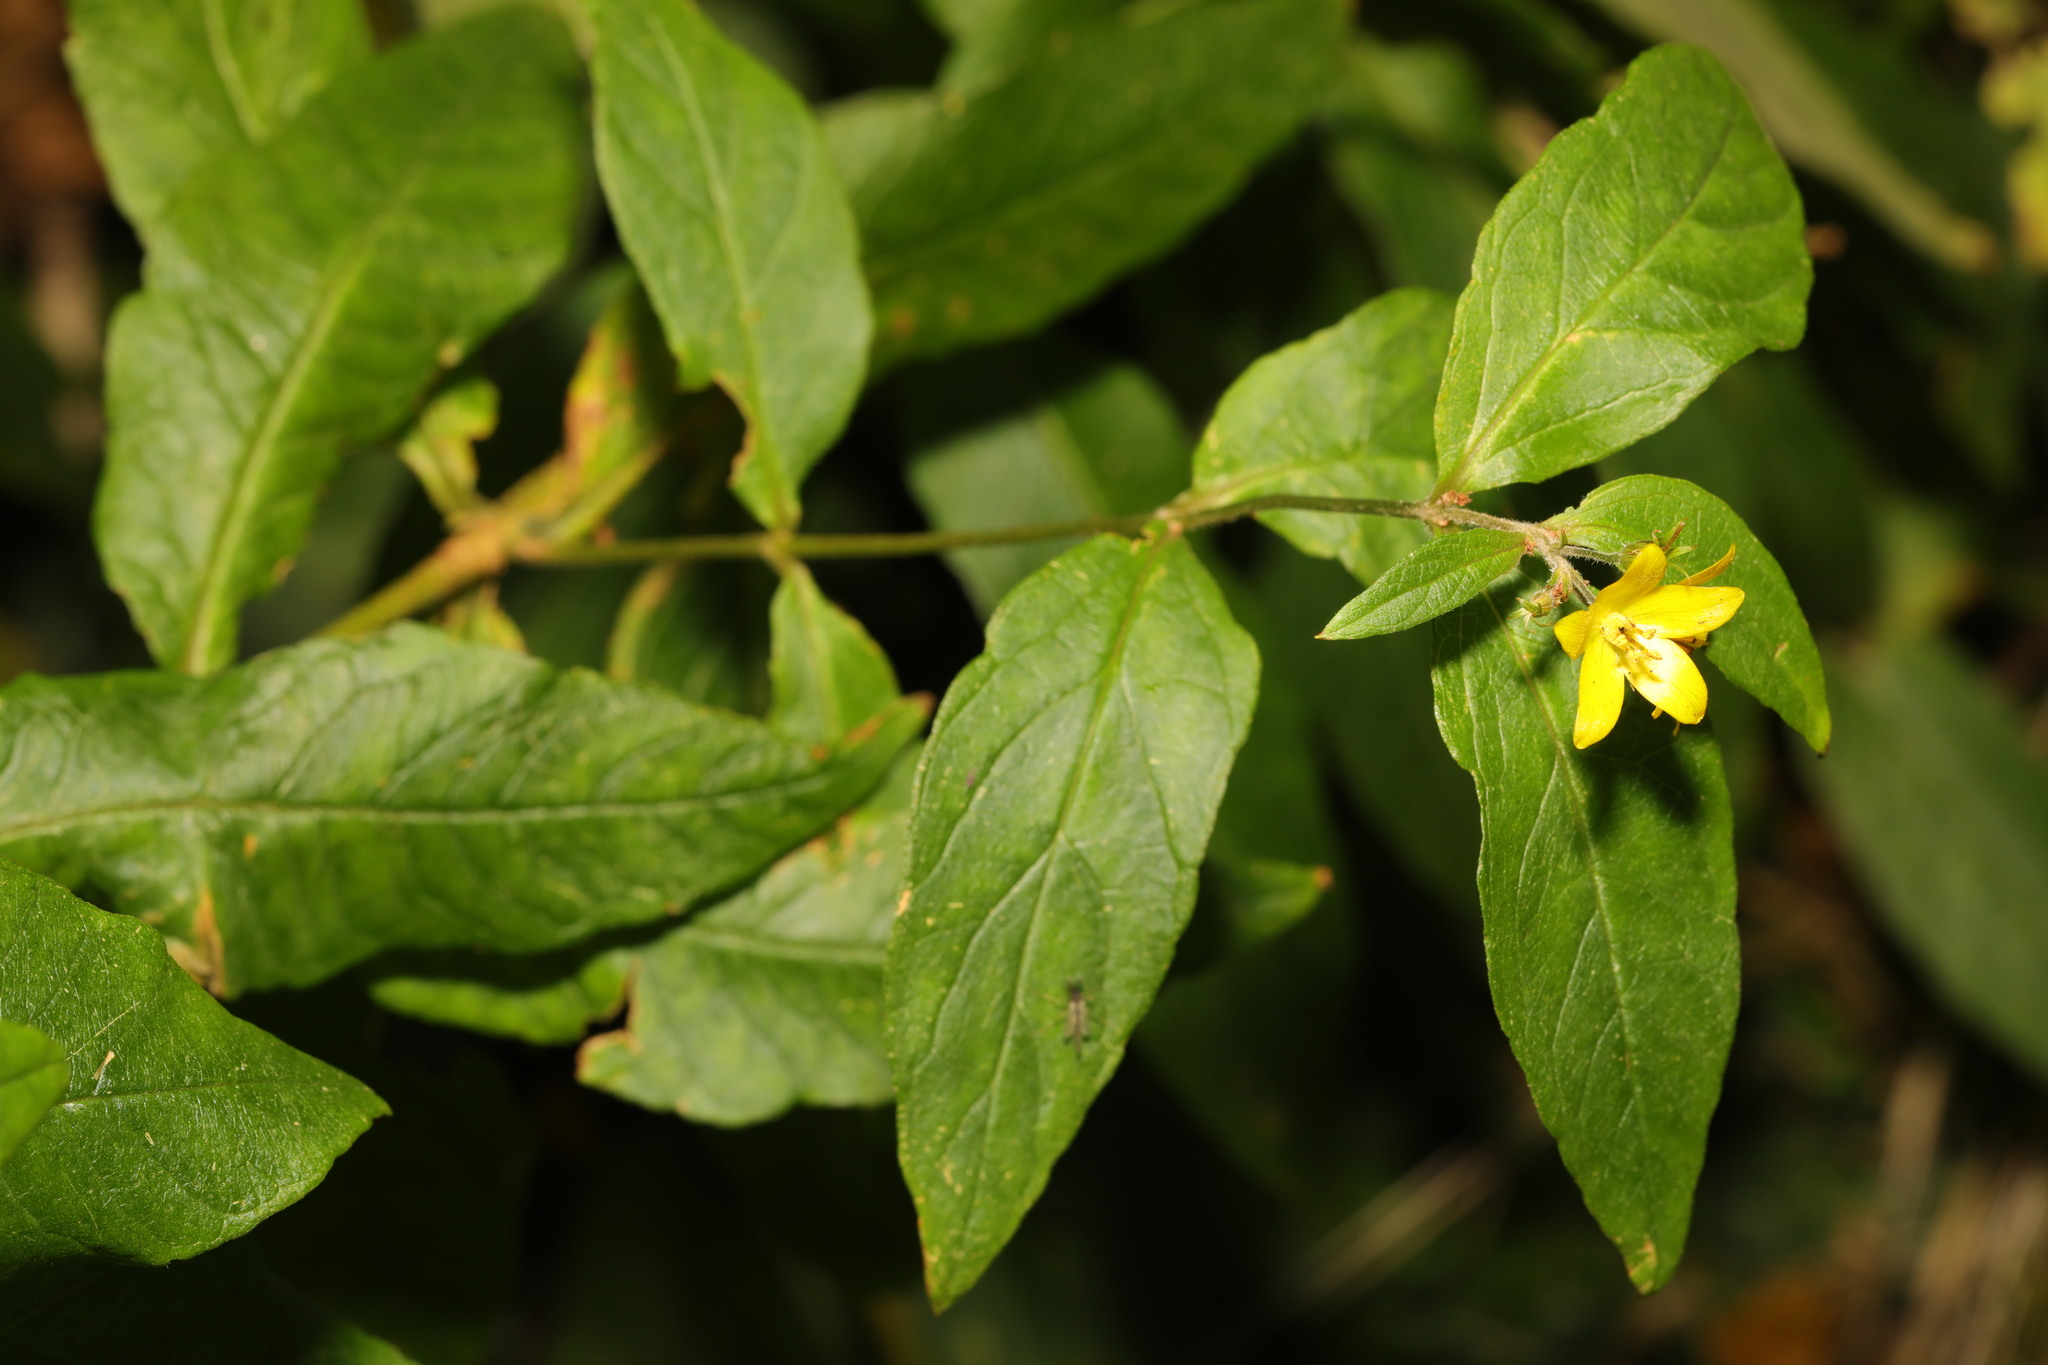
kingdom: Plantae
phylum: Tracheophyta
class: Magnoliopsida
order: Ericales
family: Primulaceae
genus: Lysimachia
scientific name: Lysimachia vulgaris
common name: Yellow loosestrife
